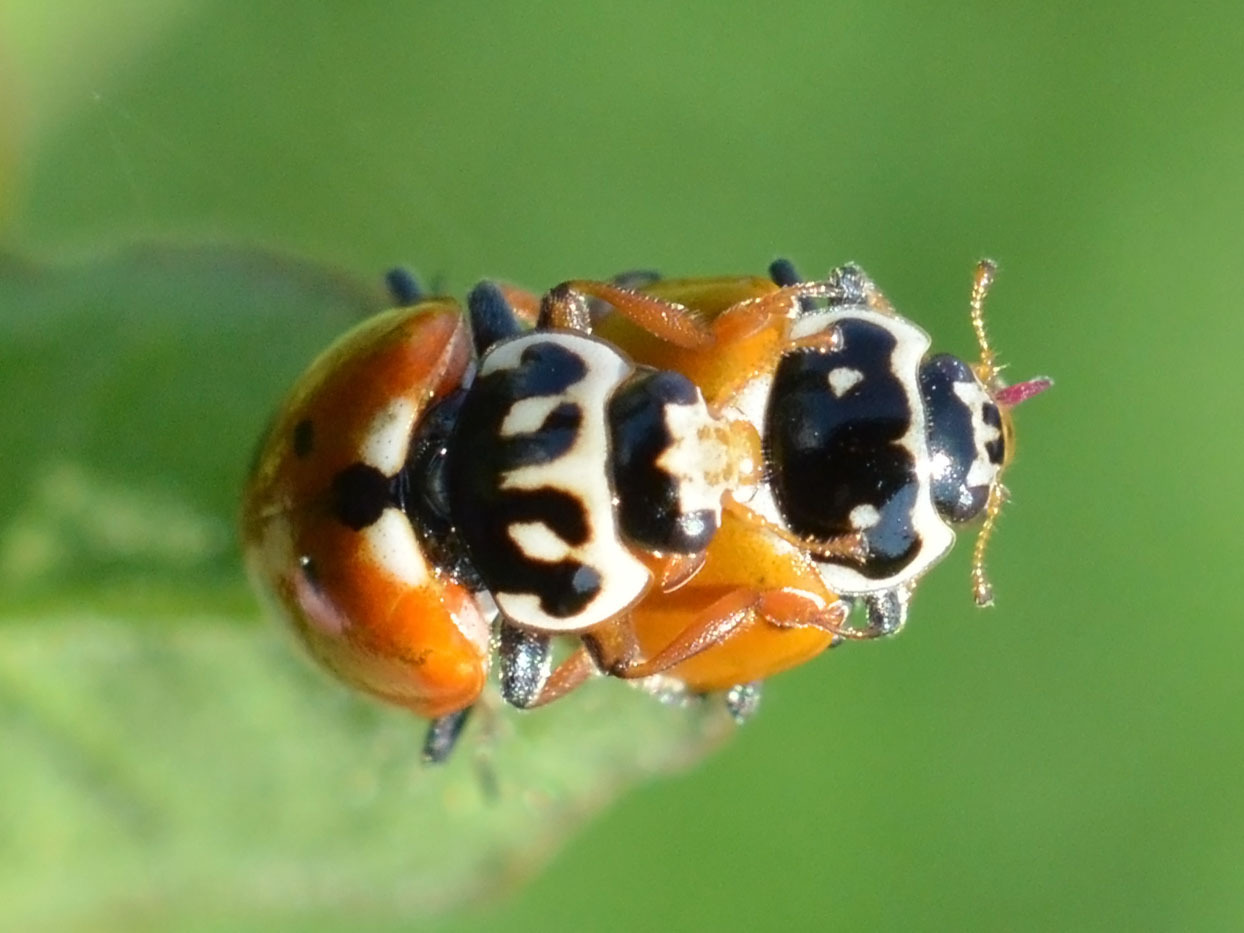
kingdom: Animalia
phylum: Arthropoda
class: Insecta
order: Coleoptera
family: Coccinellidae
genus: Hippodamia
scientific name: Hippodamia variegata
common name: Ladybird beetle
